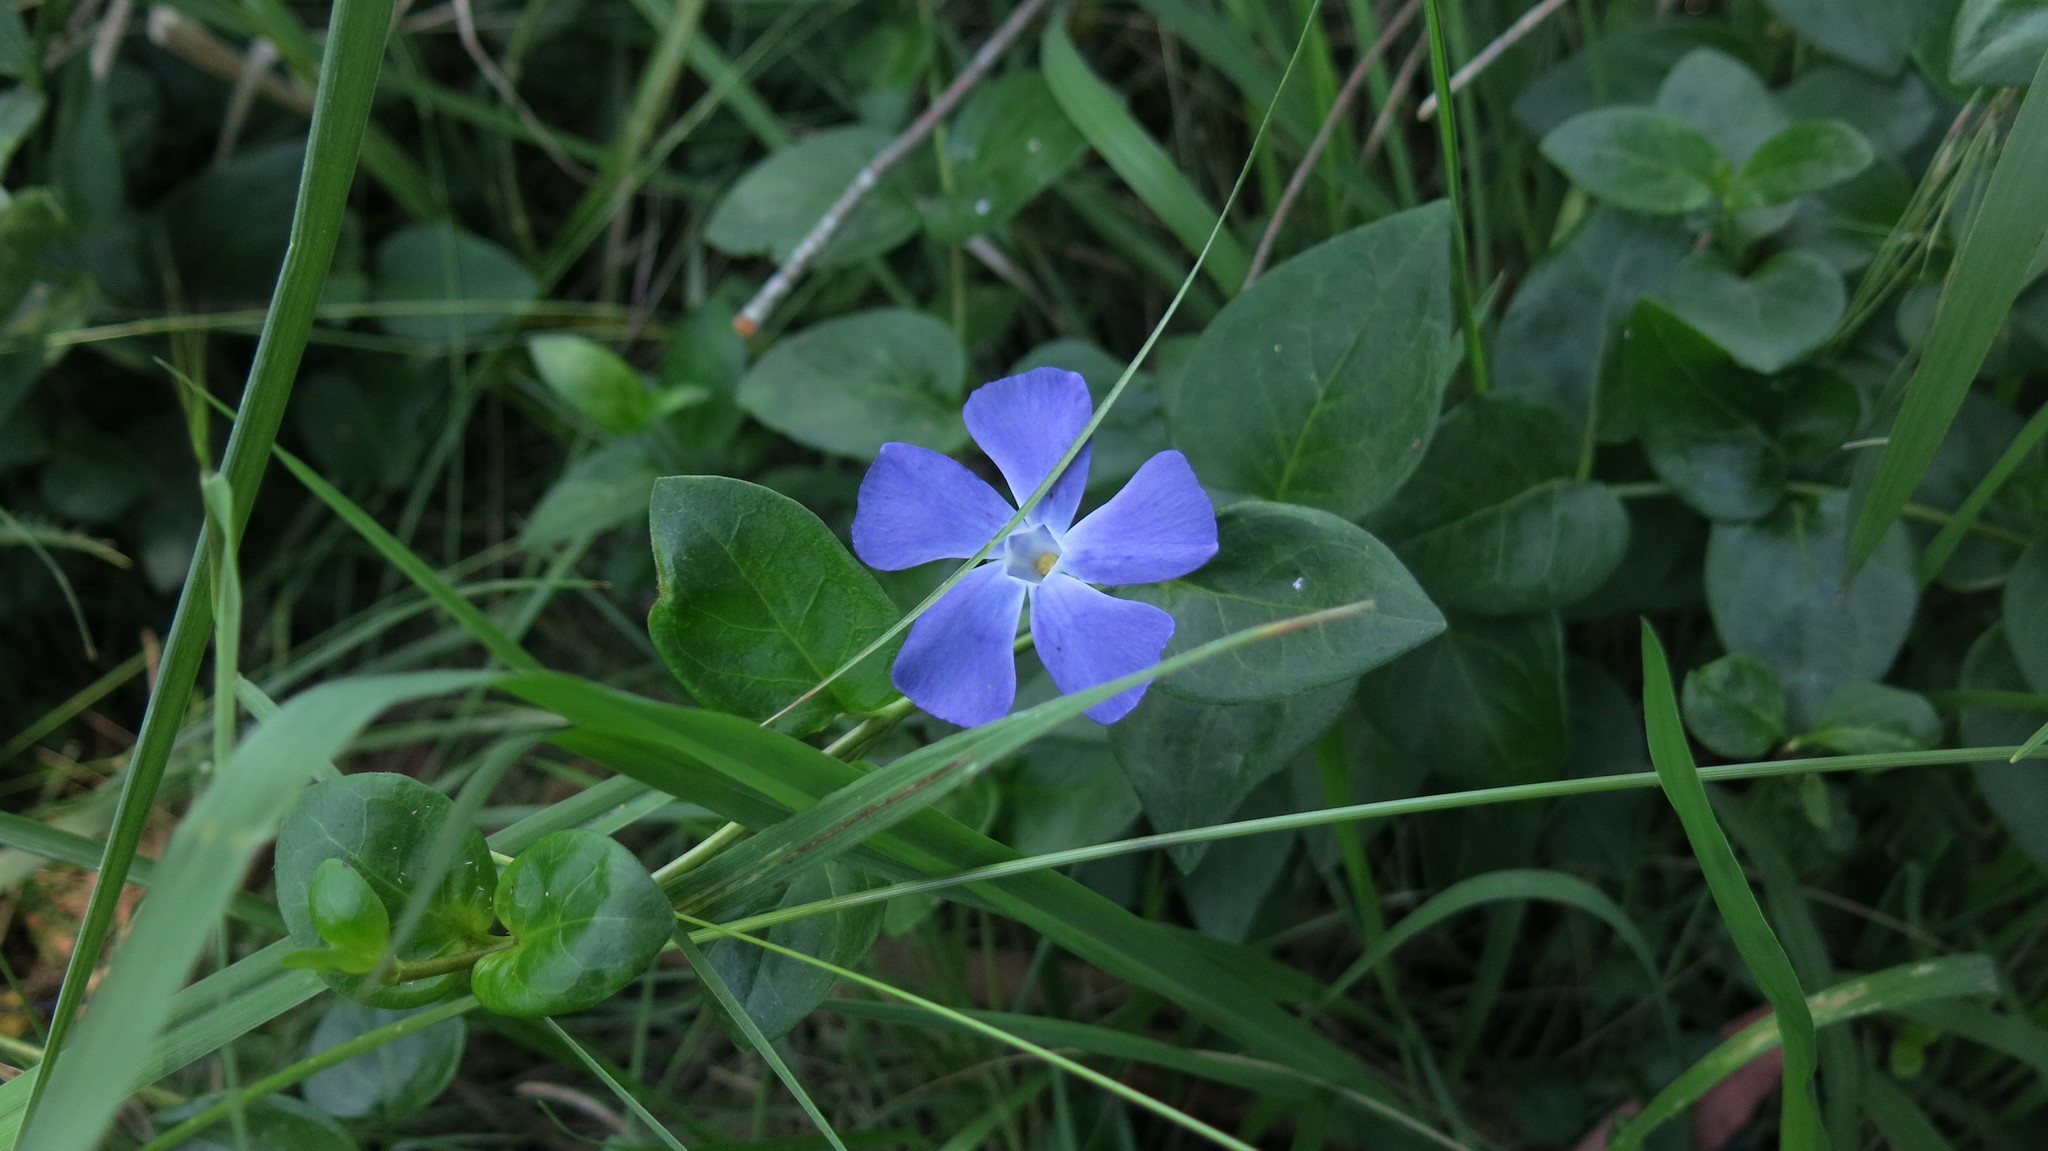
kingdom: Plantae
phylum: Tracheophyta
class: Magnoliopsida
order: Gentianales
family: Apocynaceae
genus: Vinca
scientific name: Vinca major
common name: Greater periwinkle
